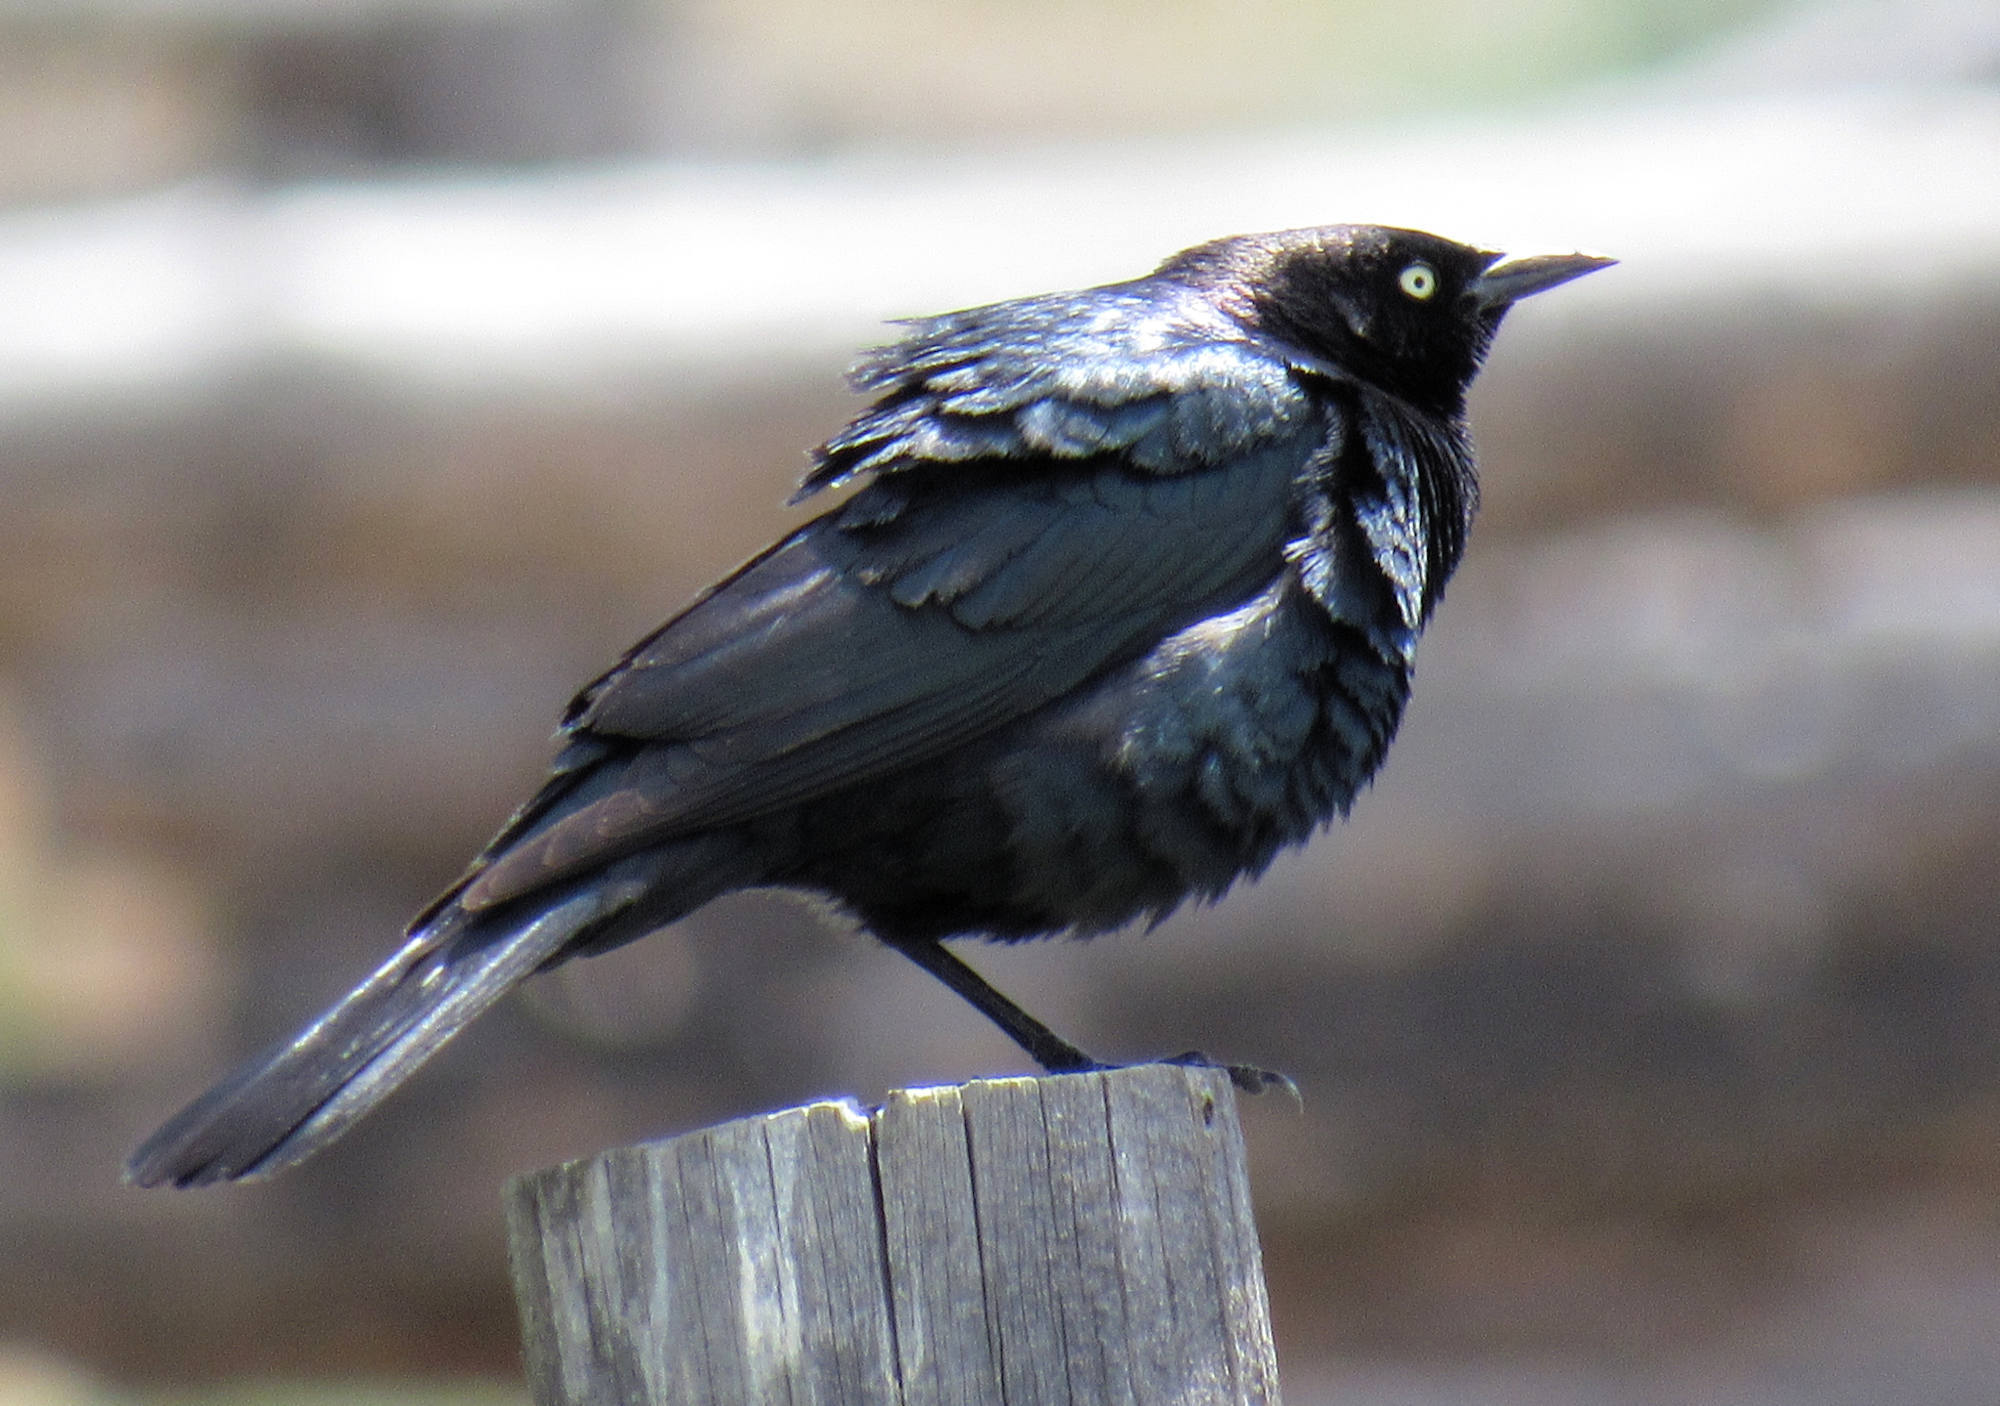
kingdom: Animalia
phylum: Chordata
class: Aves
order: Passeriformes
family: Icteridae
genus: Euphagus
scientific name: Euphagus cyanocephalus
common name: Brewer's blackbird
